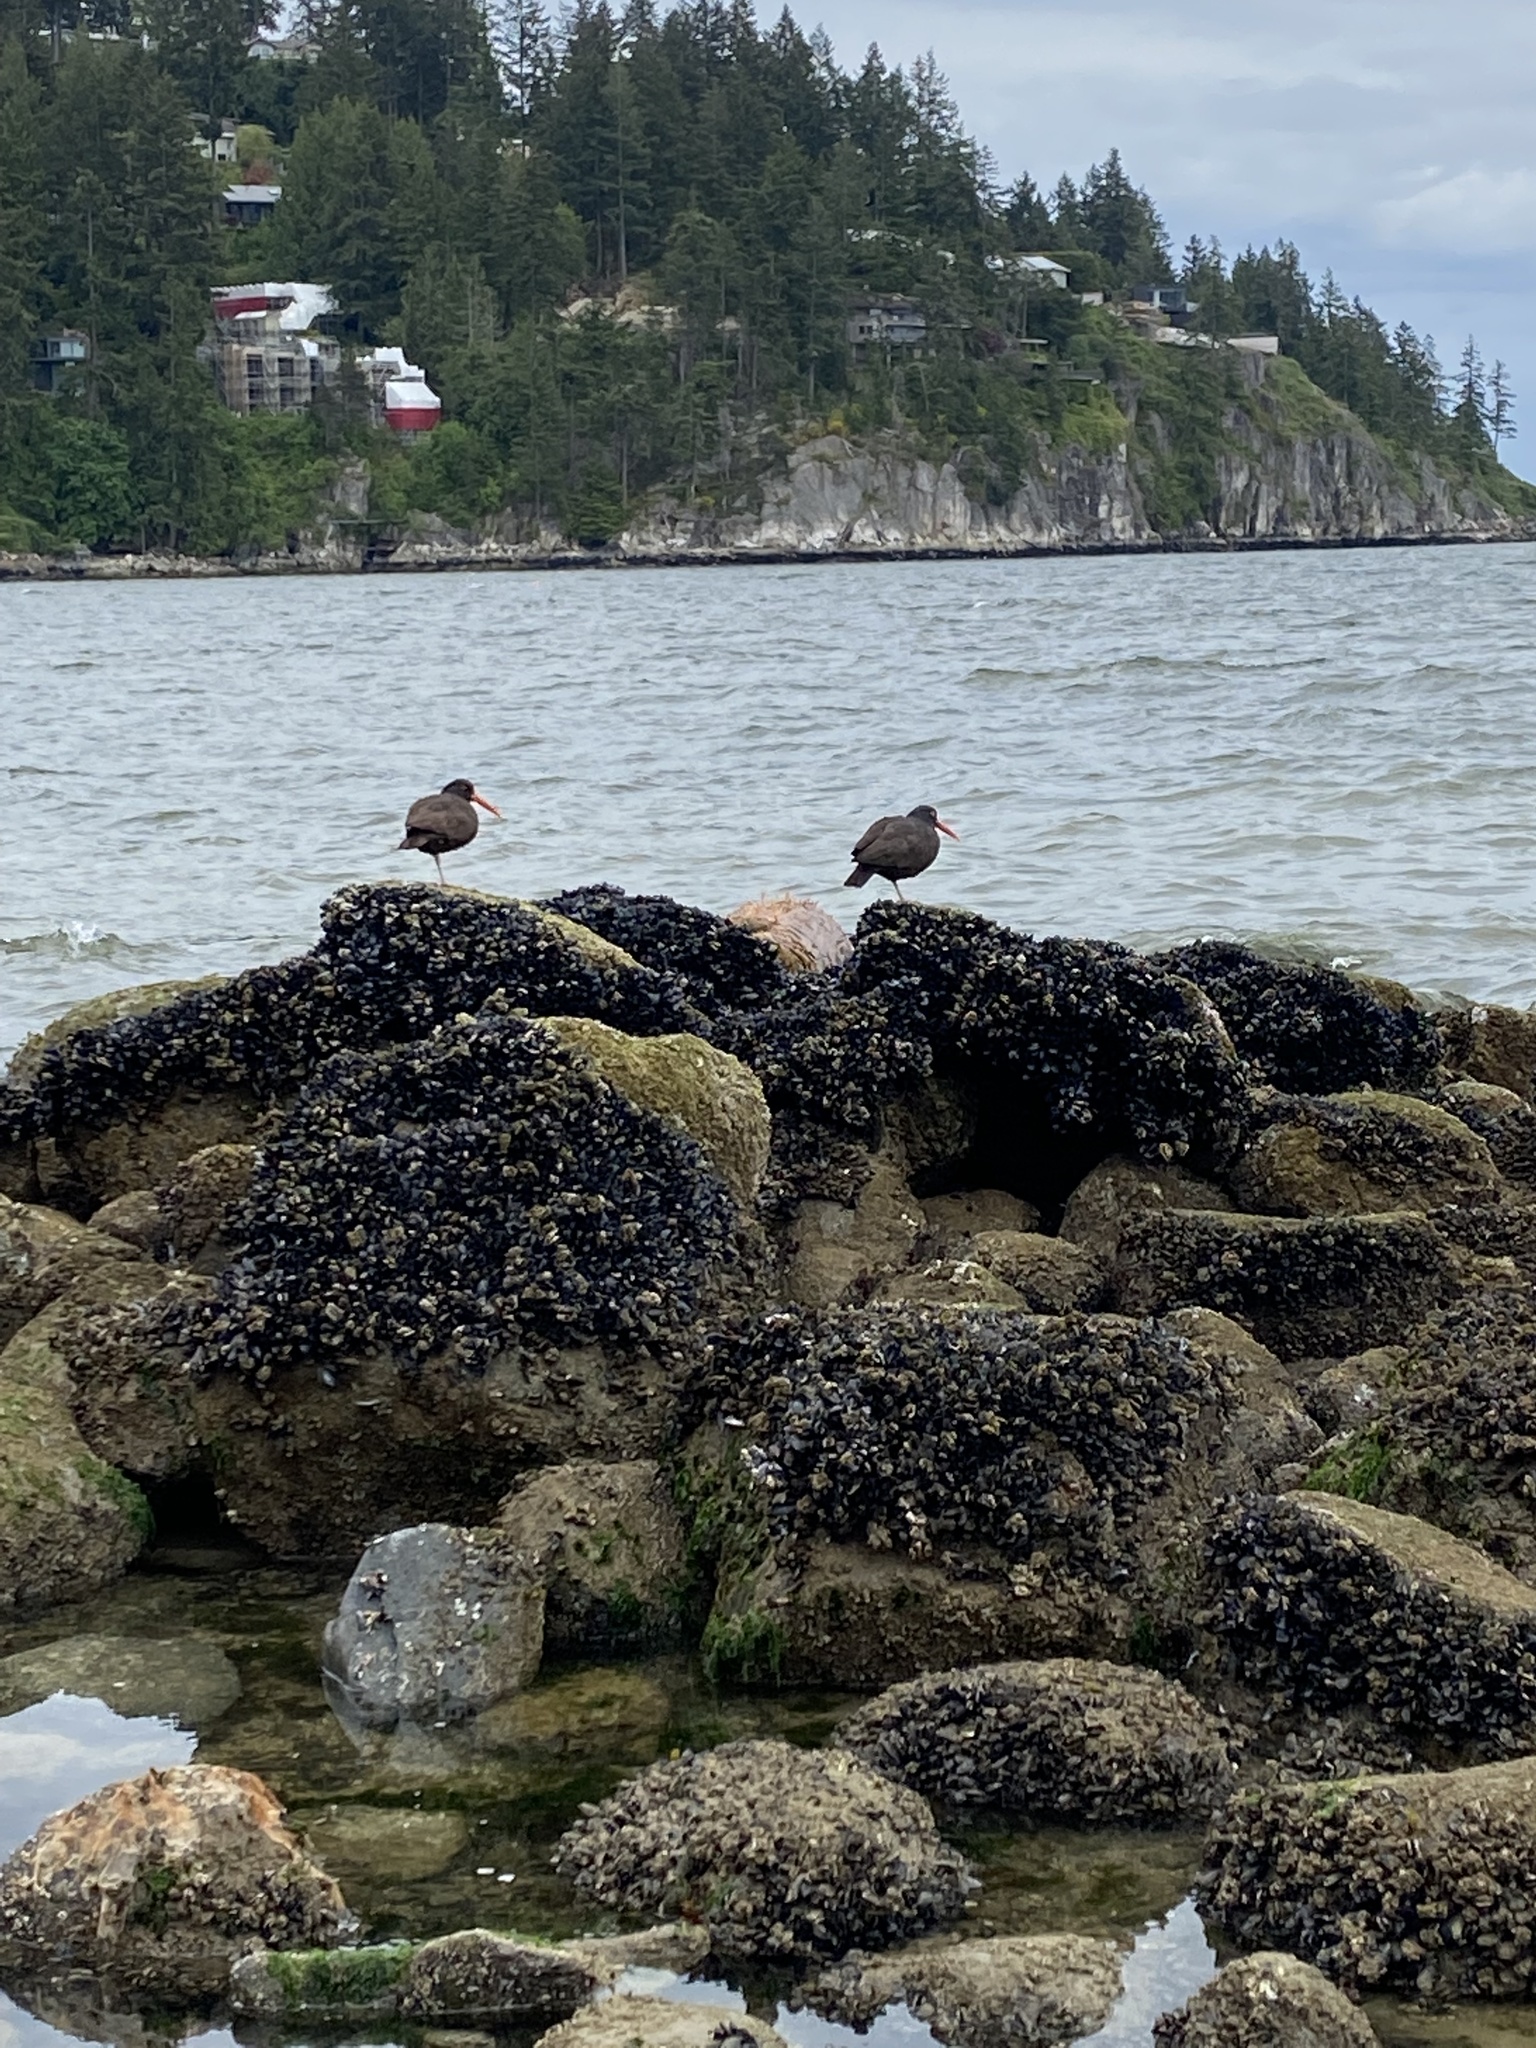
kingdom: Animalia
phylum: Chordata
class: Aves
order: Charadriiformes
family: Haematopodidae
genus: Haematopus
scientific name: Haematopus bachmani
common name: Black oystercatcher
